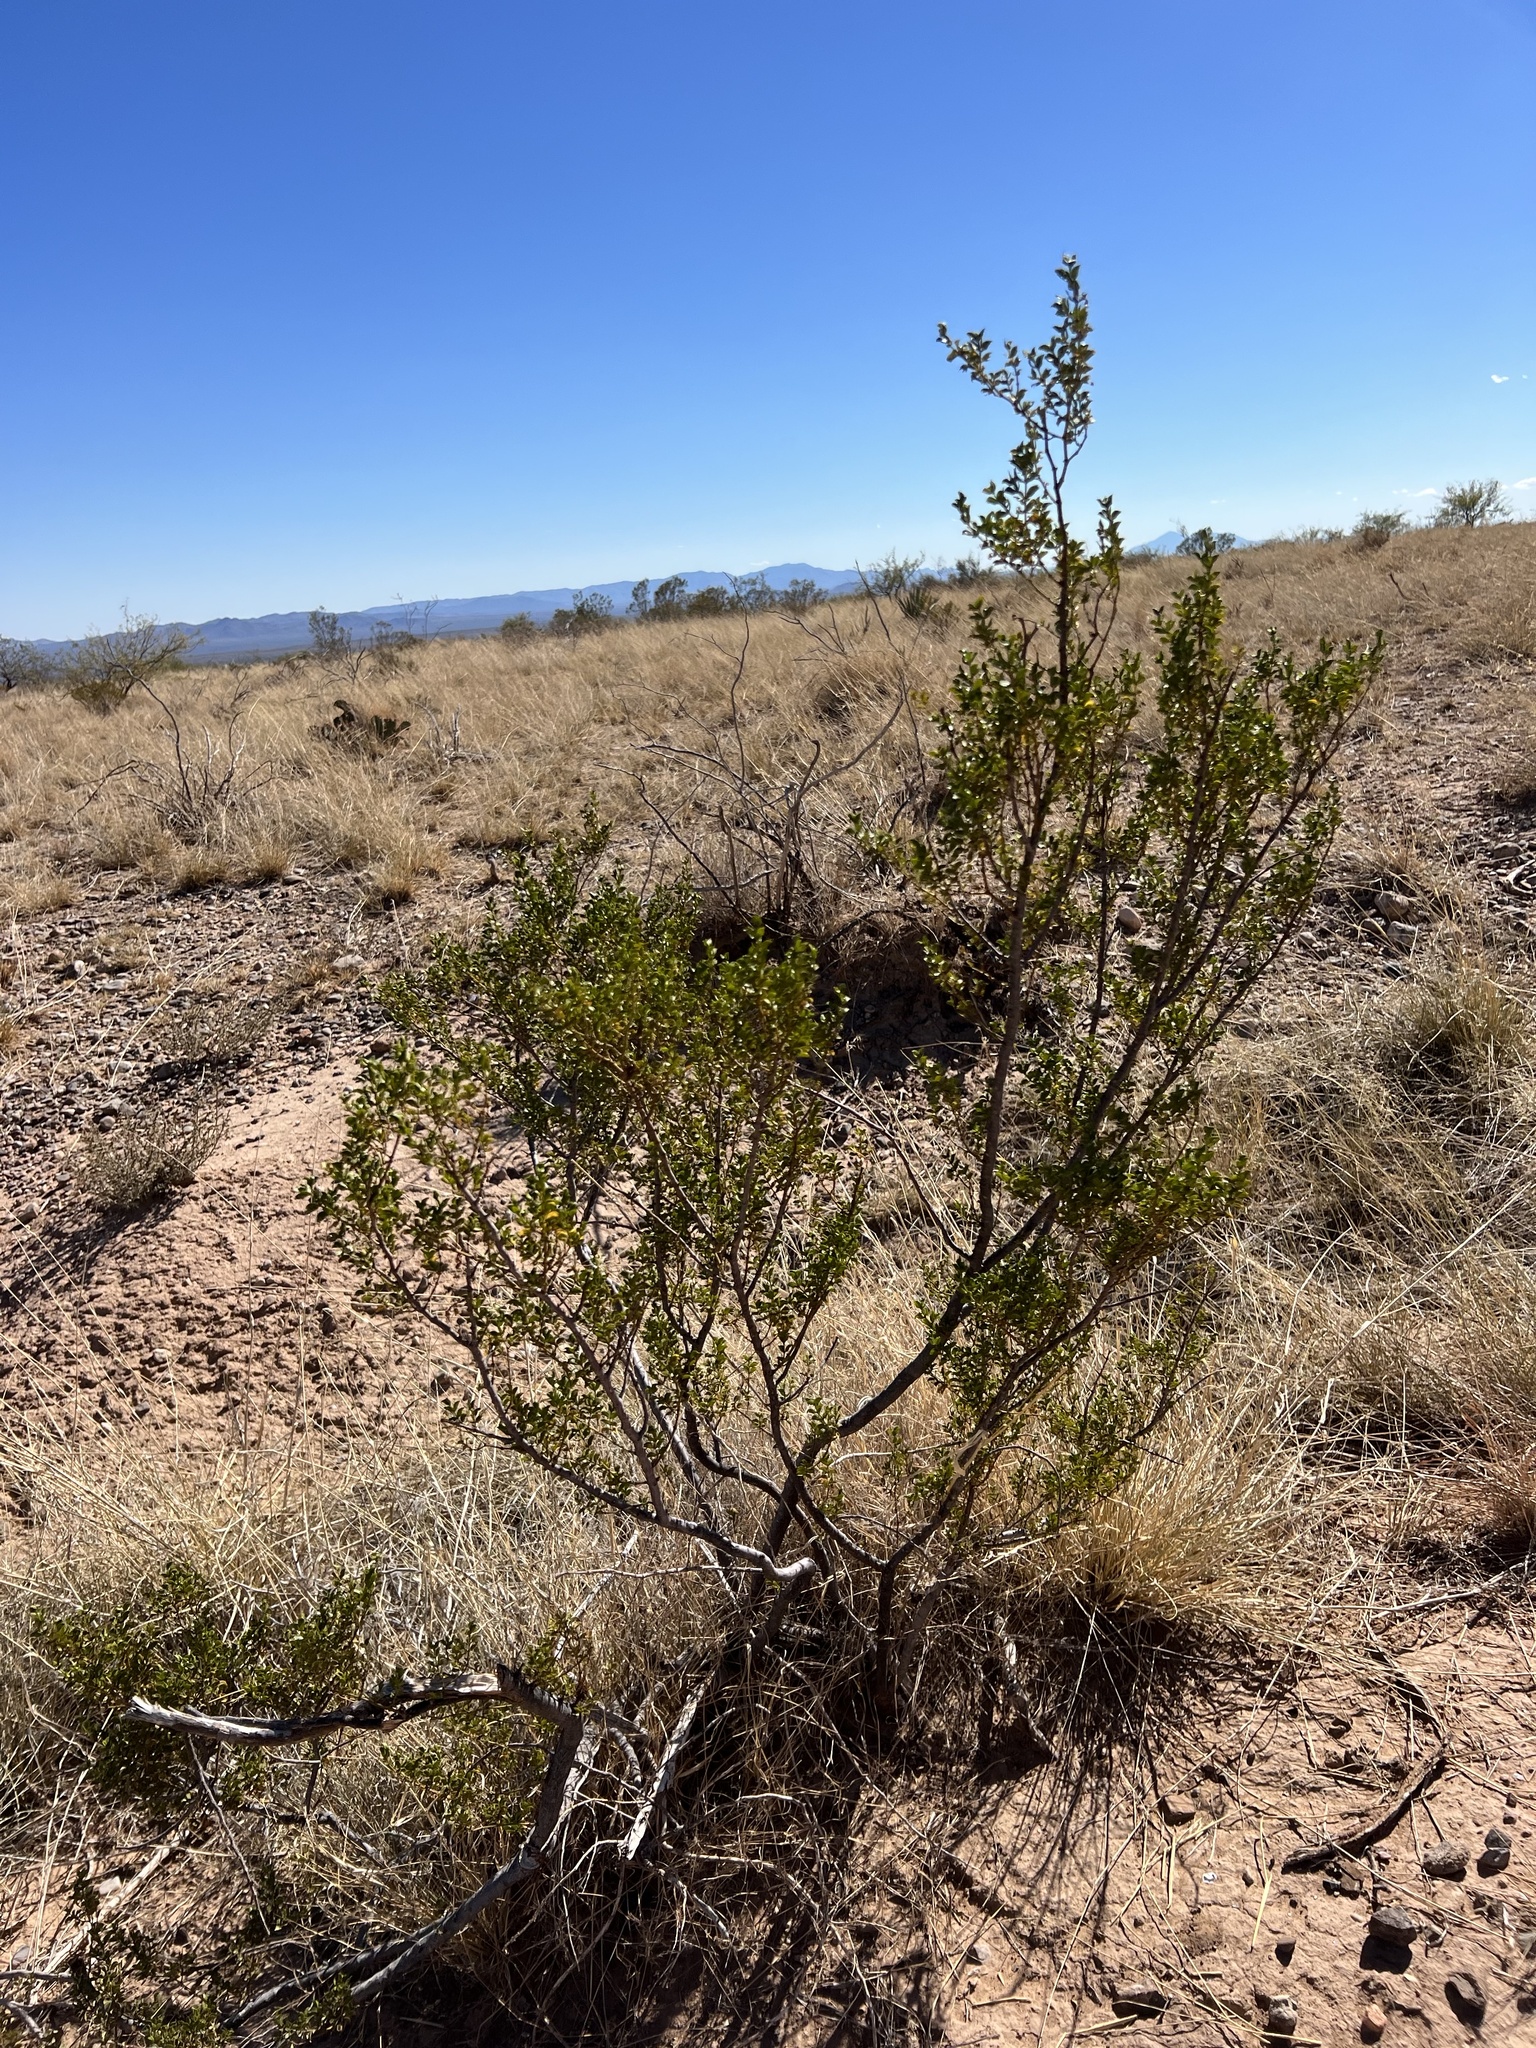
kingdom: Plantae
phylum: Tracheophyta
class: Magnoliopsida
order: Zygophyllales
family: Zygophyllaceae
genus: Larrea
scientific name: Larrea tridentata
